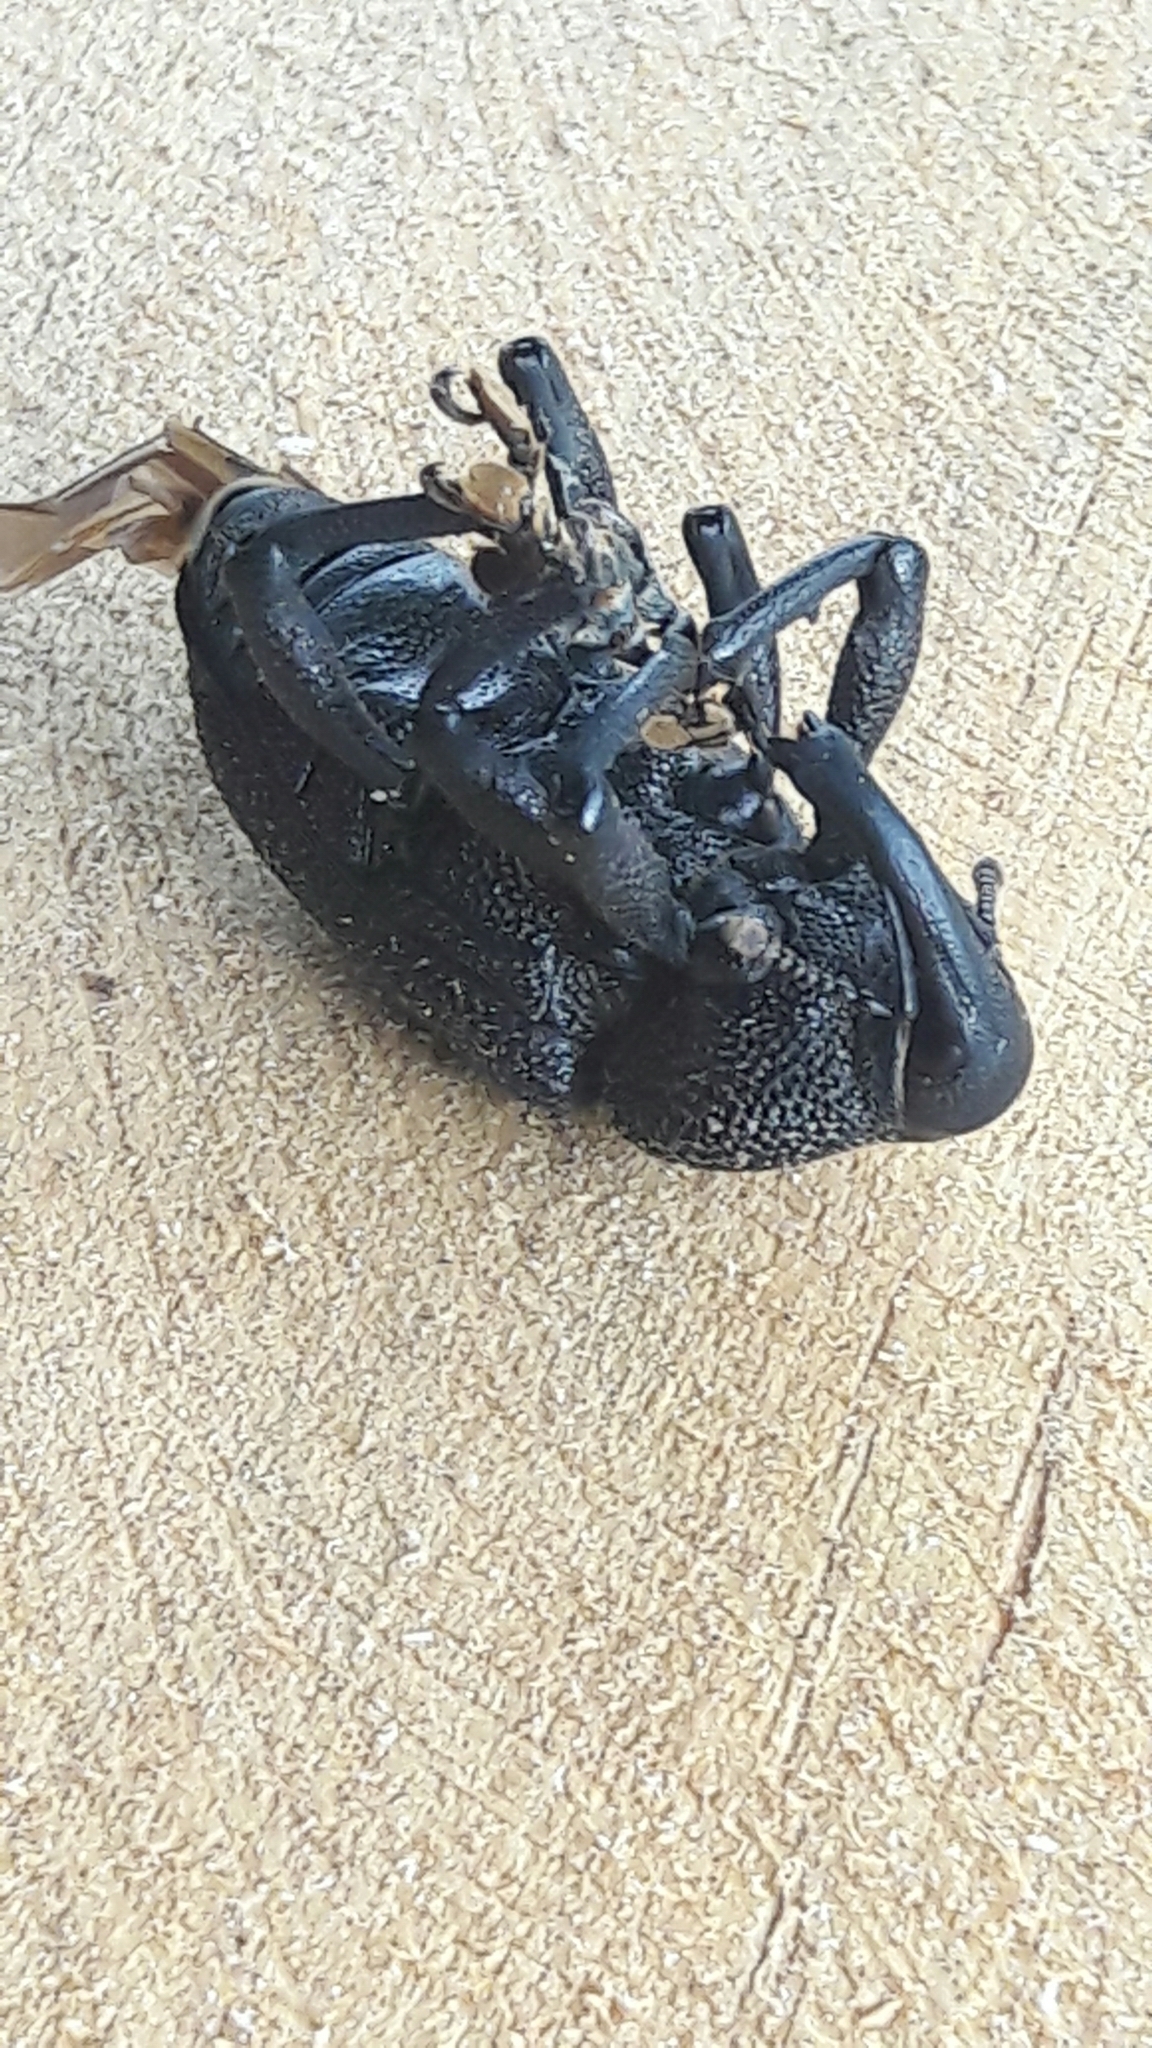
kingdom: Animalia
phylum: Arthropoda
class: Insecta
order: Coleoptera
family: Curculionidae
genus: Homalinotus
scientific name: Homalinotus coriaceus
